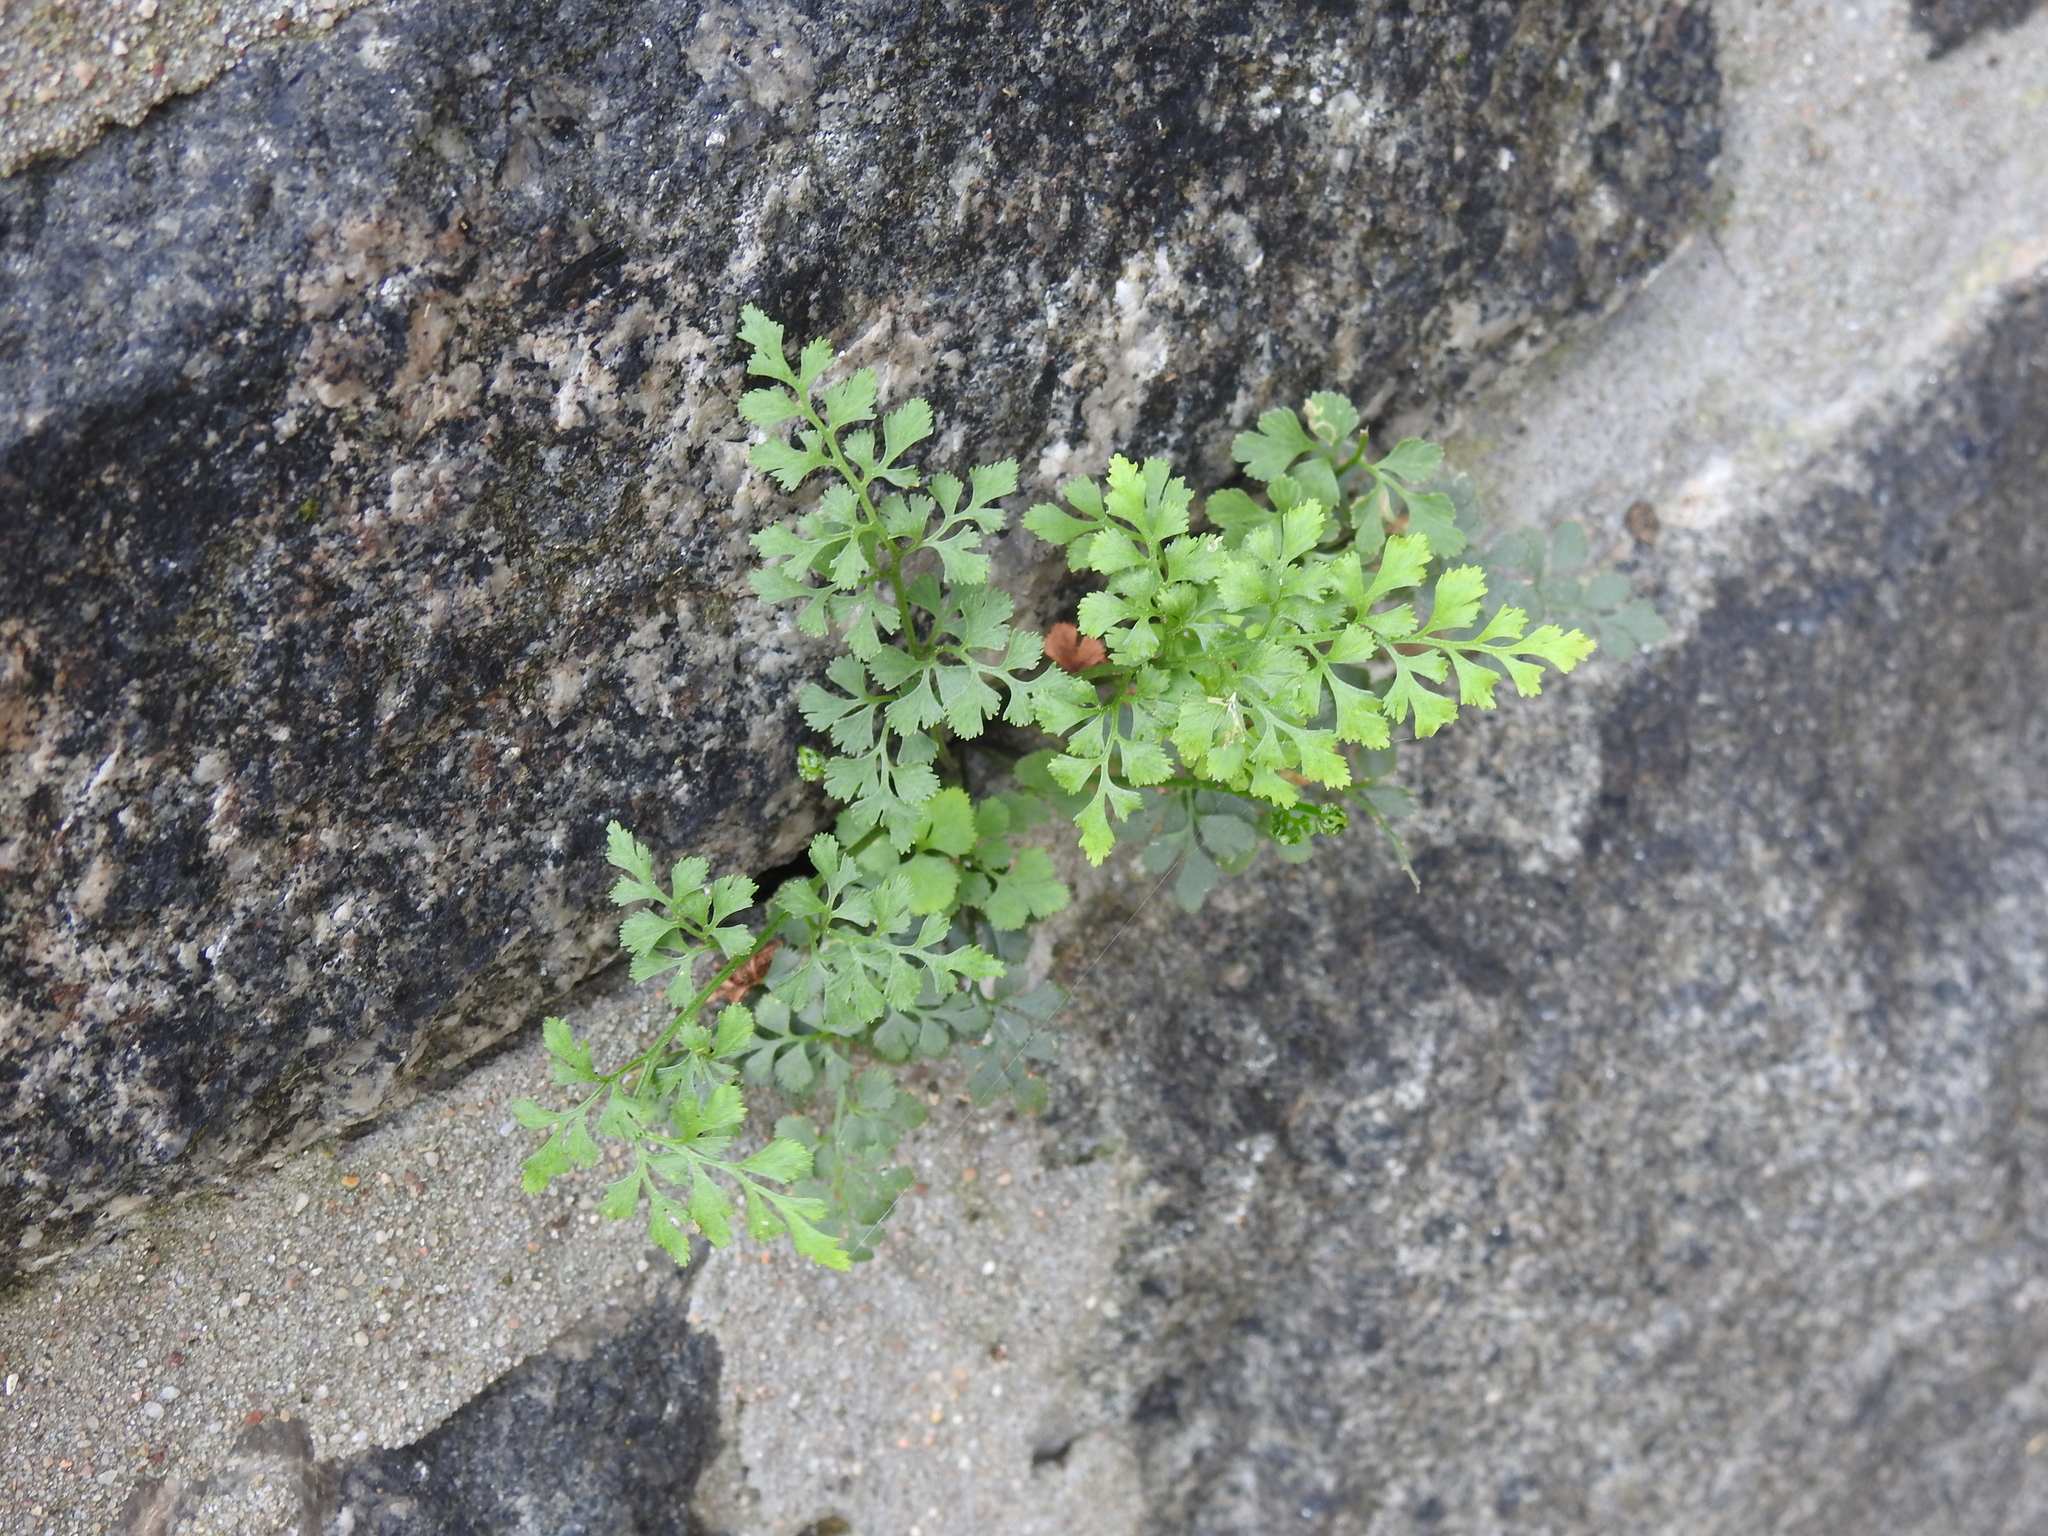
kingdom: Plantae
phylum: Tracheophyta
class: Polypodiopsida
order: Polypodiales
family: Aspleniaceae
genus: Asplenium
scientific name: Asplenium ruta-muraria
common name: Wall-rue
